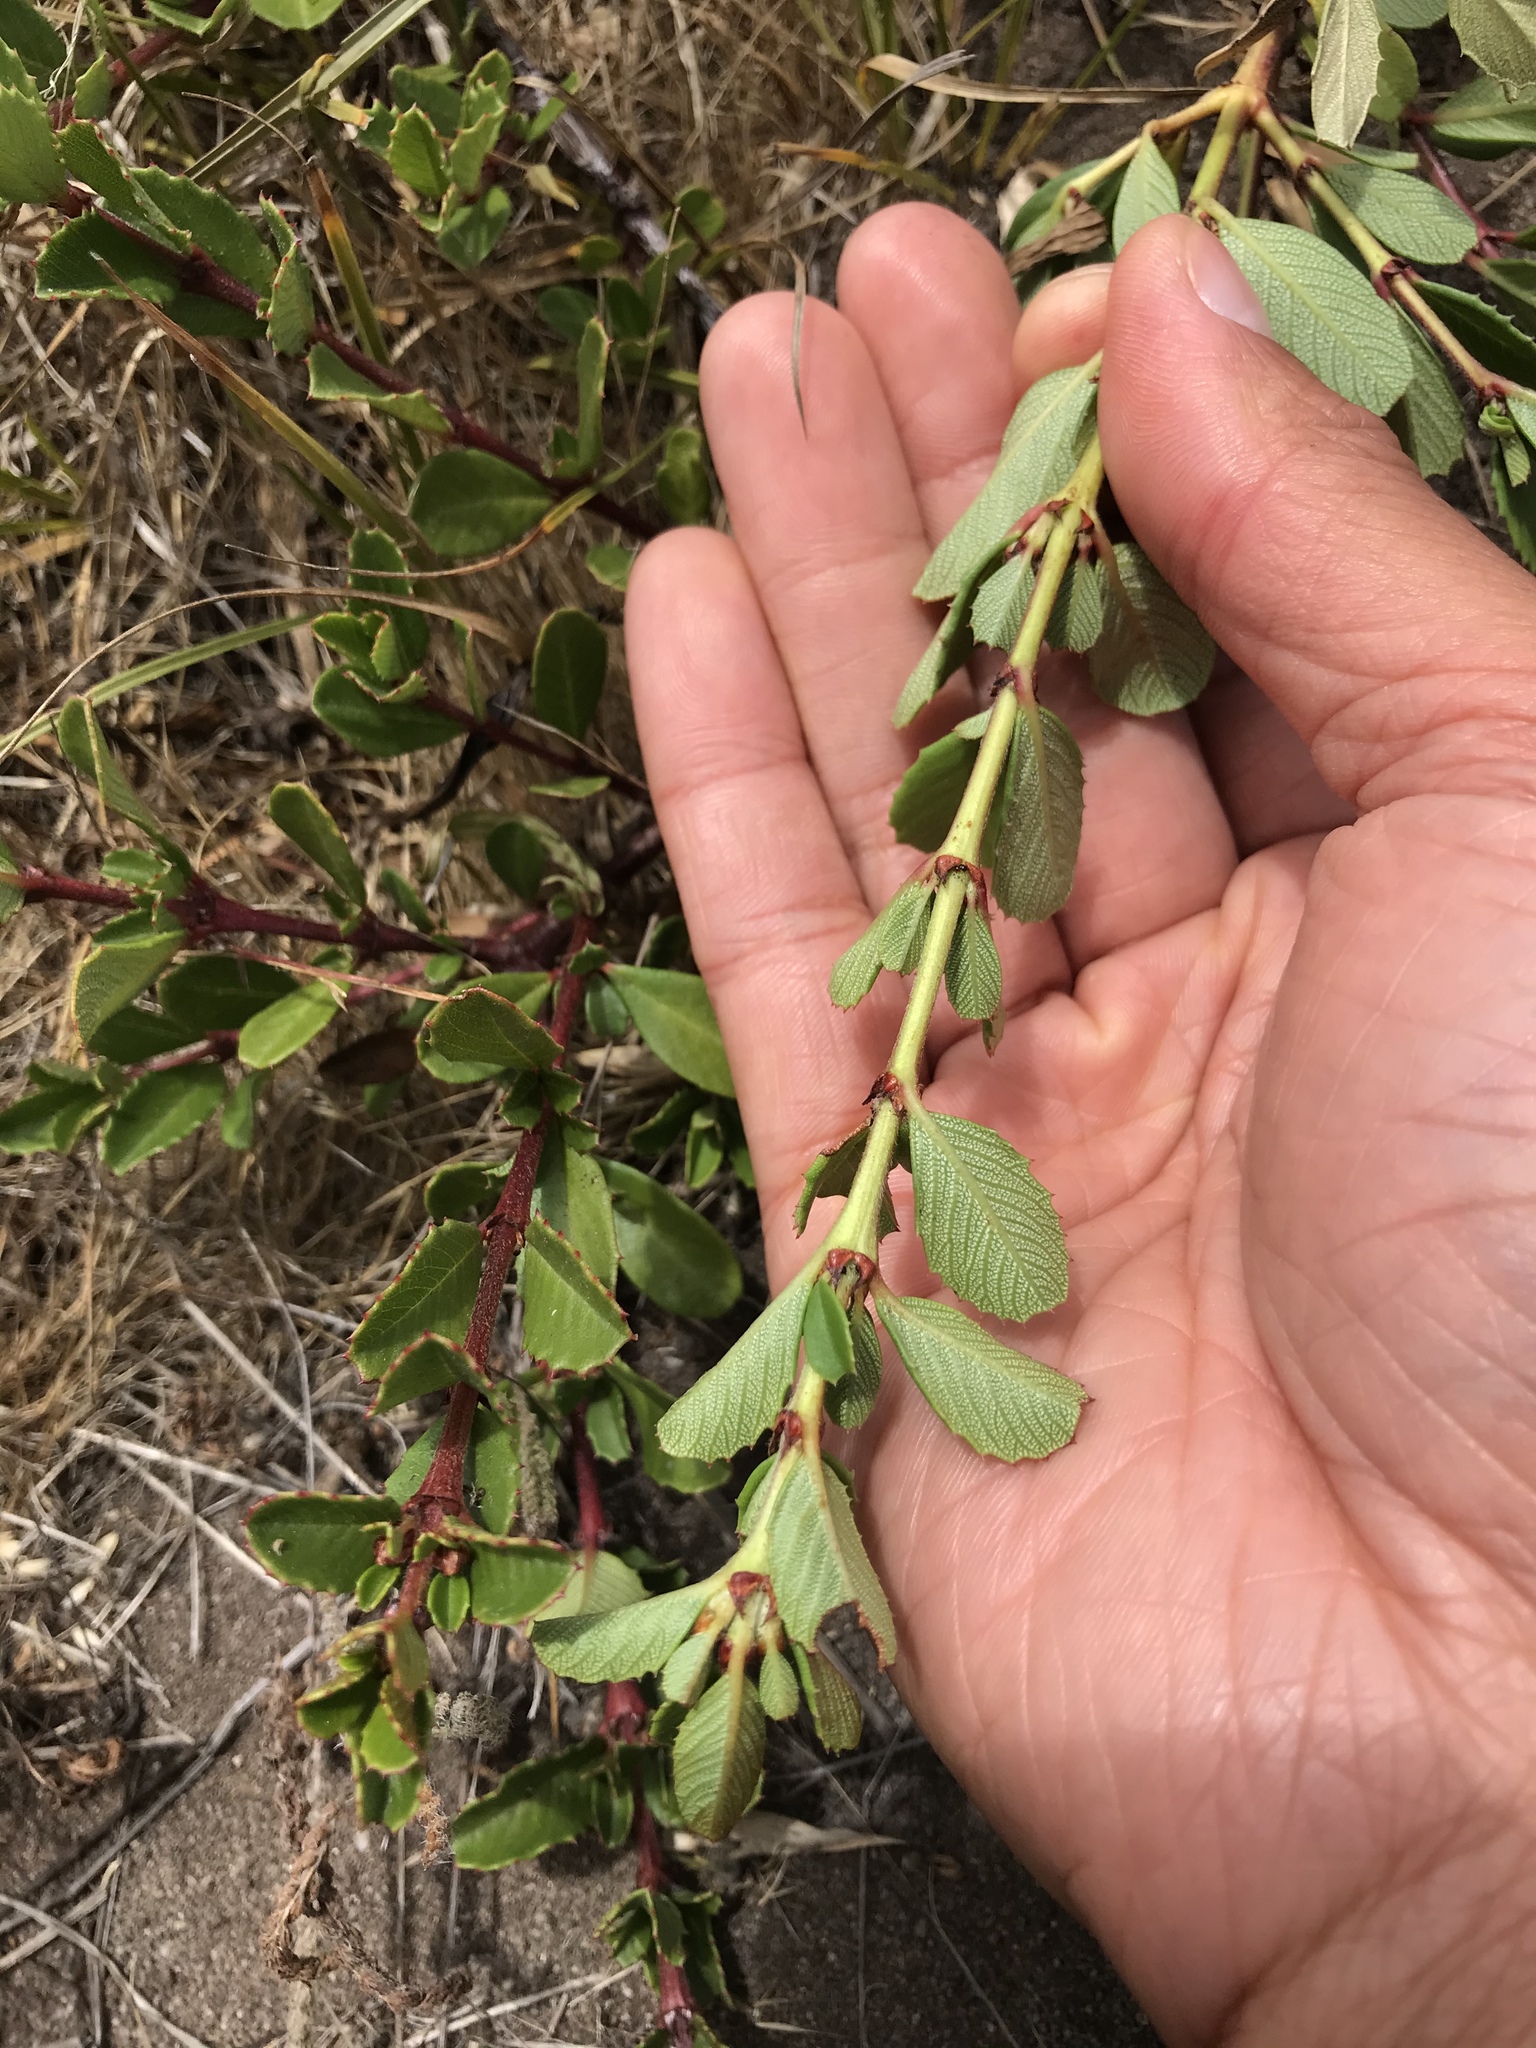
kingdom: Plantae
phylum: Tracheophyta
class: Magnoliopsida
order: Rosales
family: Rhamnaceae
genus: Ceanothus
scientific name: Ceanothus gloriosus
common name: Point reyes ceanothus
